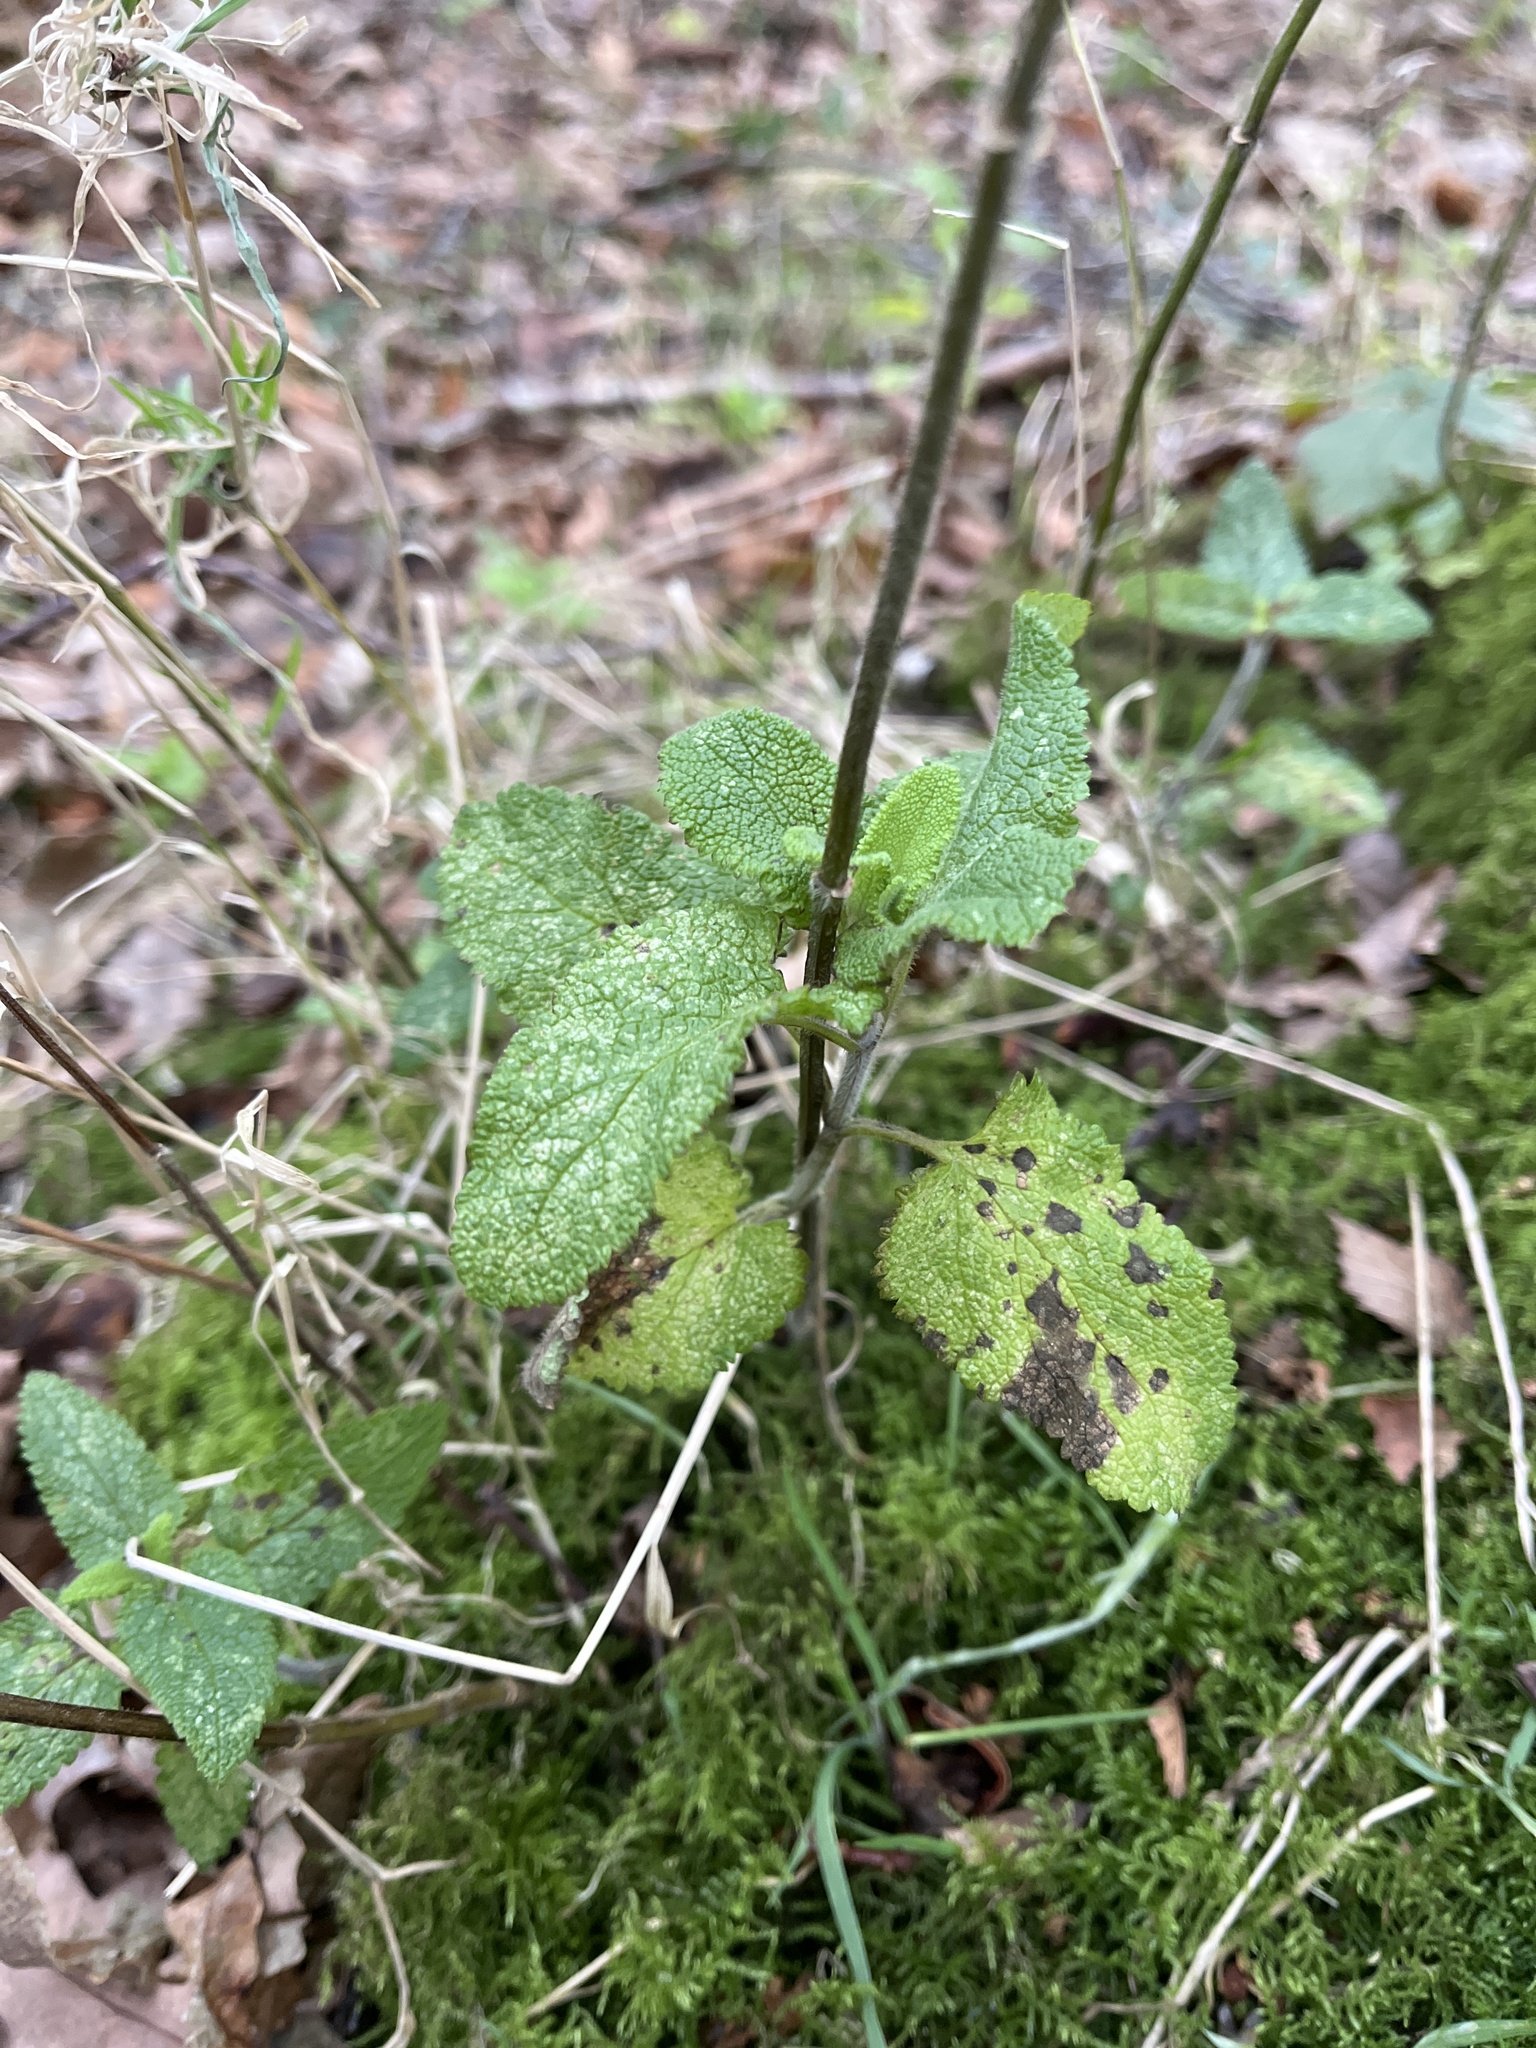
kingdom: Plantae
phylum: Tracheophyta
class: Magnoliopsida
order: Lamiales
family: Lamiaceae
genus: Teucrium
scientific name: Teucrium scorodonia
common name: Woodland germander
